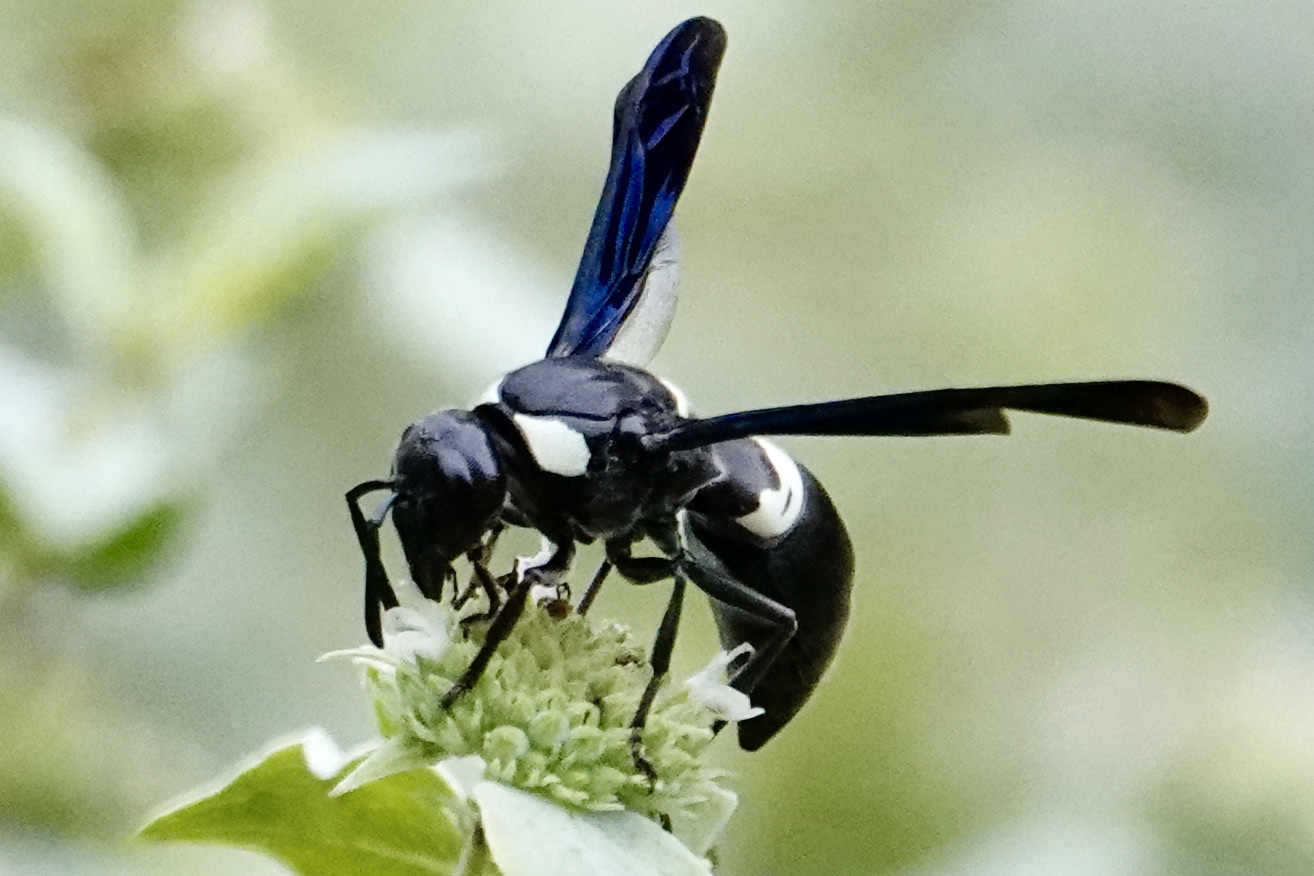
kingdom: Animalia
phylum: Arthropoda
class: Insecta
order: Hymenoptera
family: Eumenidae
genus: Monobia
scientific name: Monobia quadridens
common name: Four-toothed mason wasp
